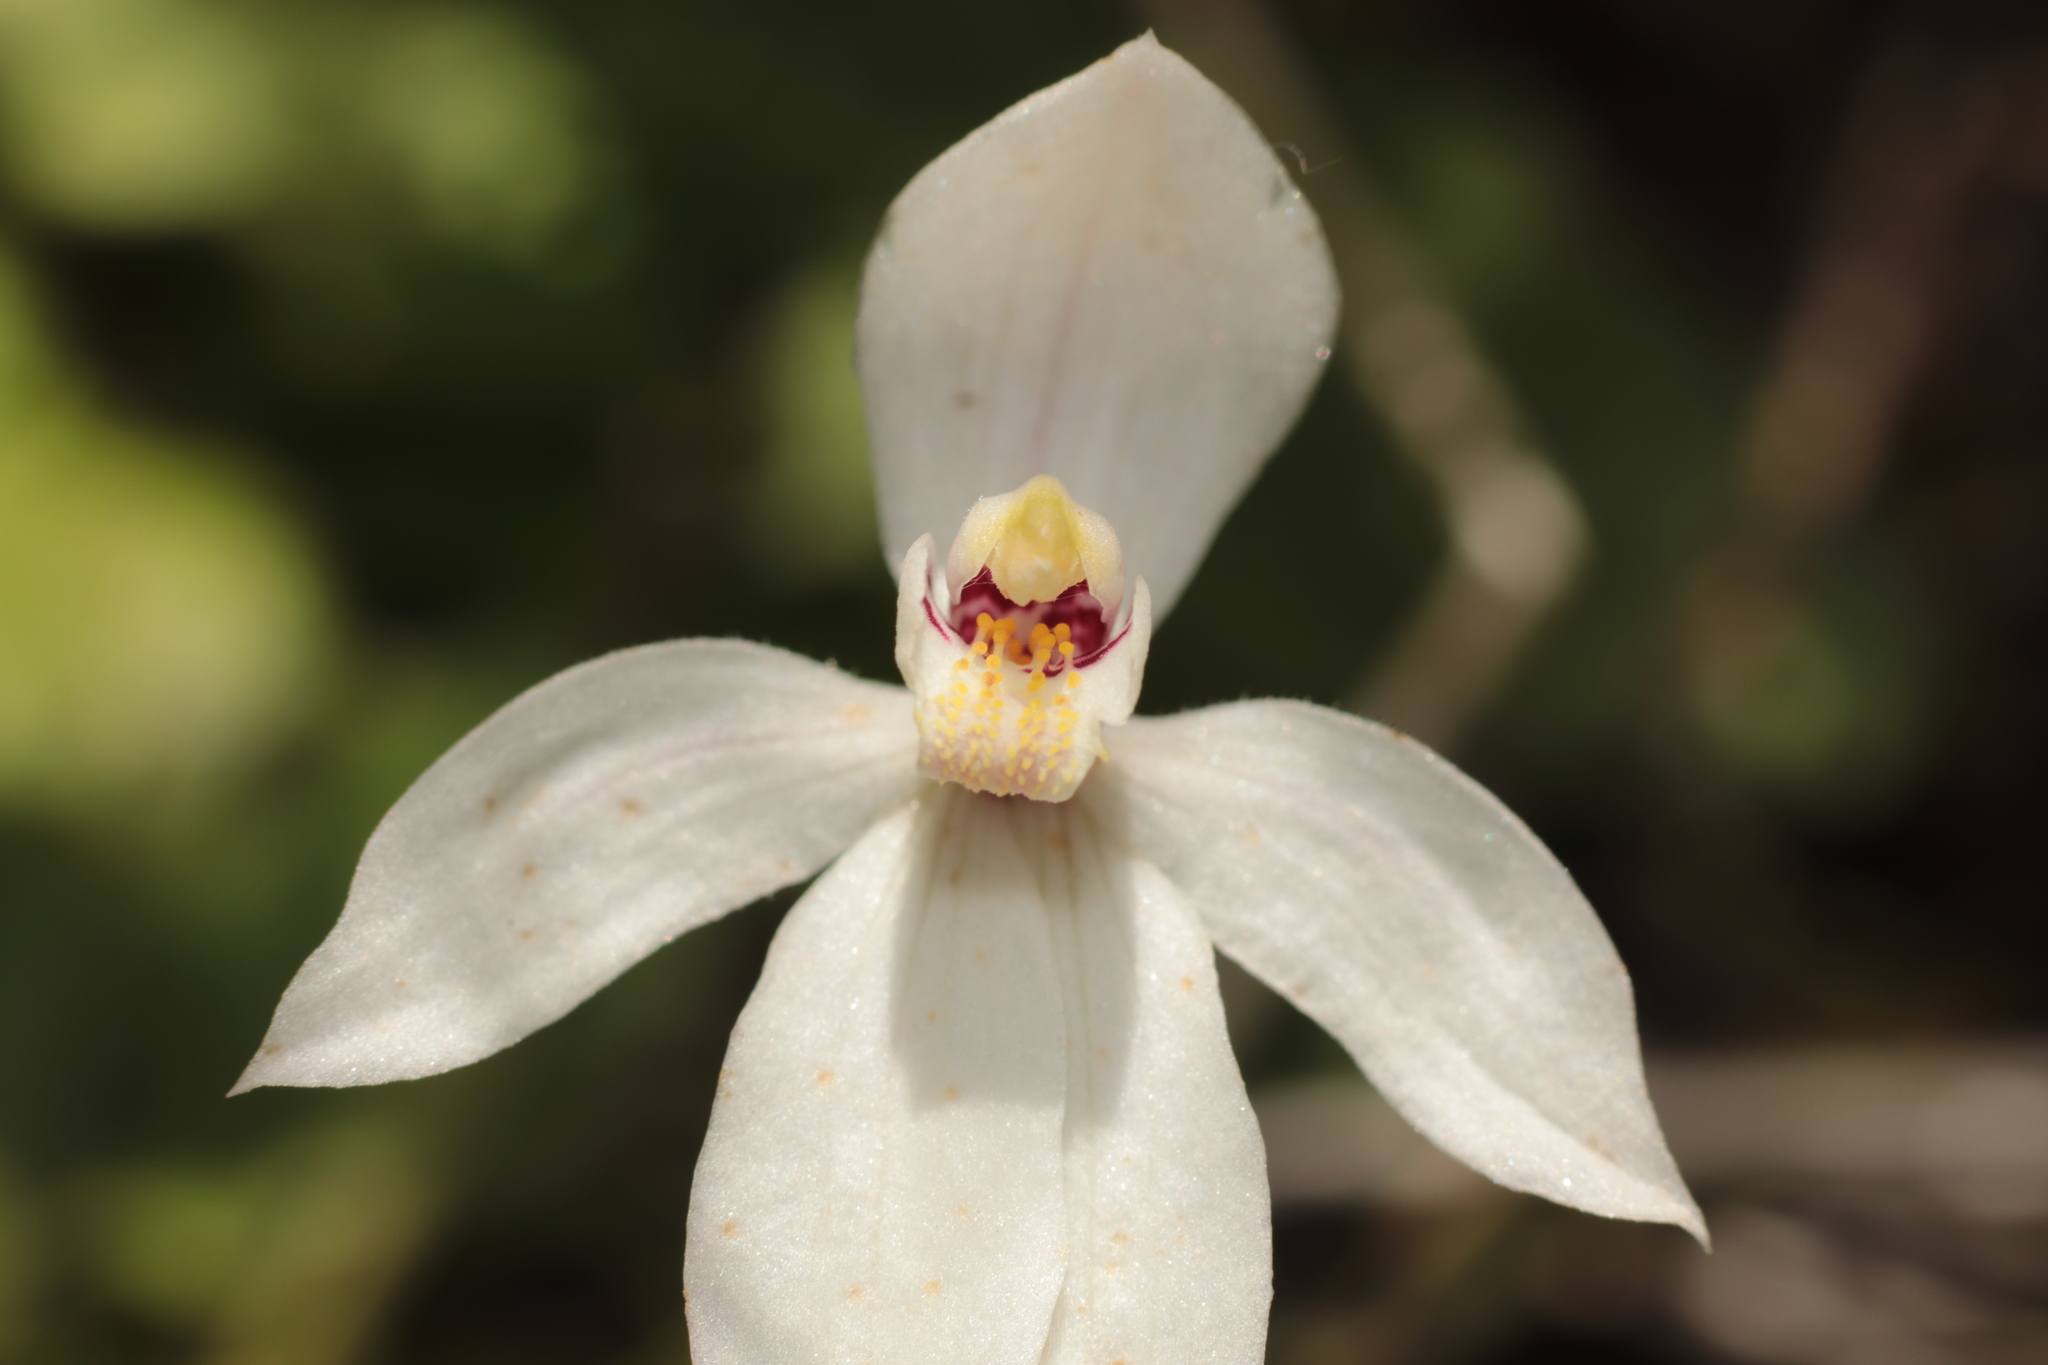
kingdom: Plantae
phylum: Tracheophyta
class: Liliopsida
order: Asparagales
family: Orchidaceae
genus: Caladenia
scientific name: Caladenia lyallii
